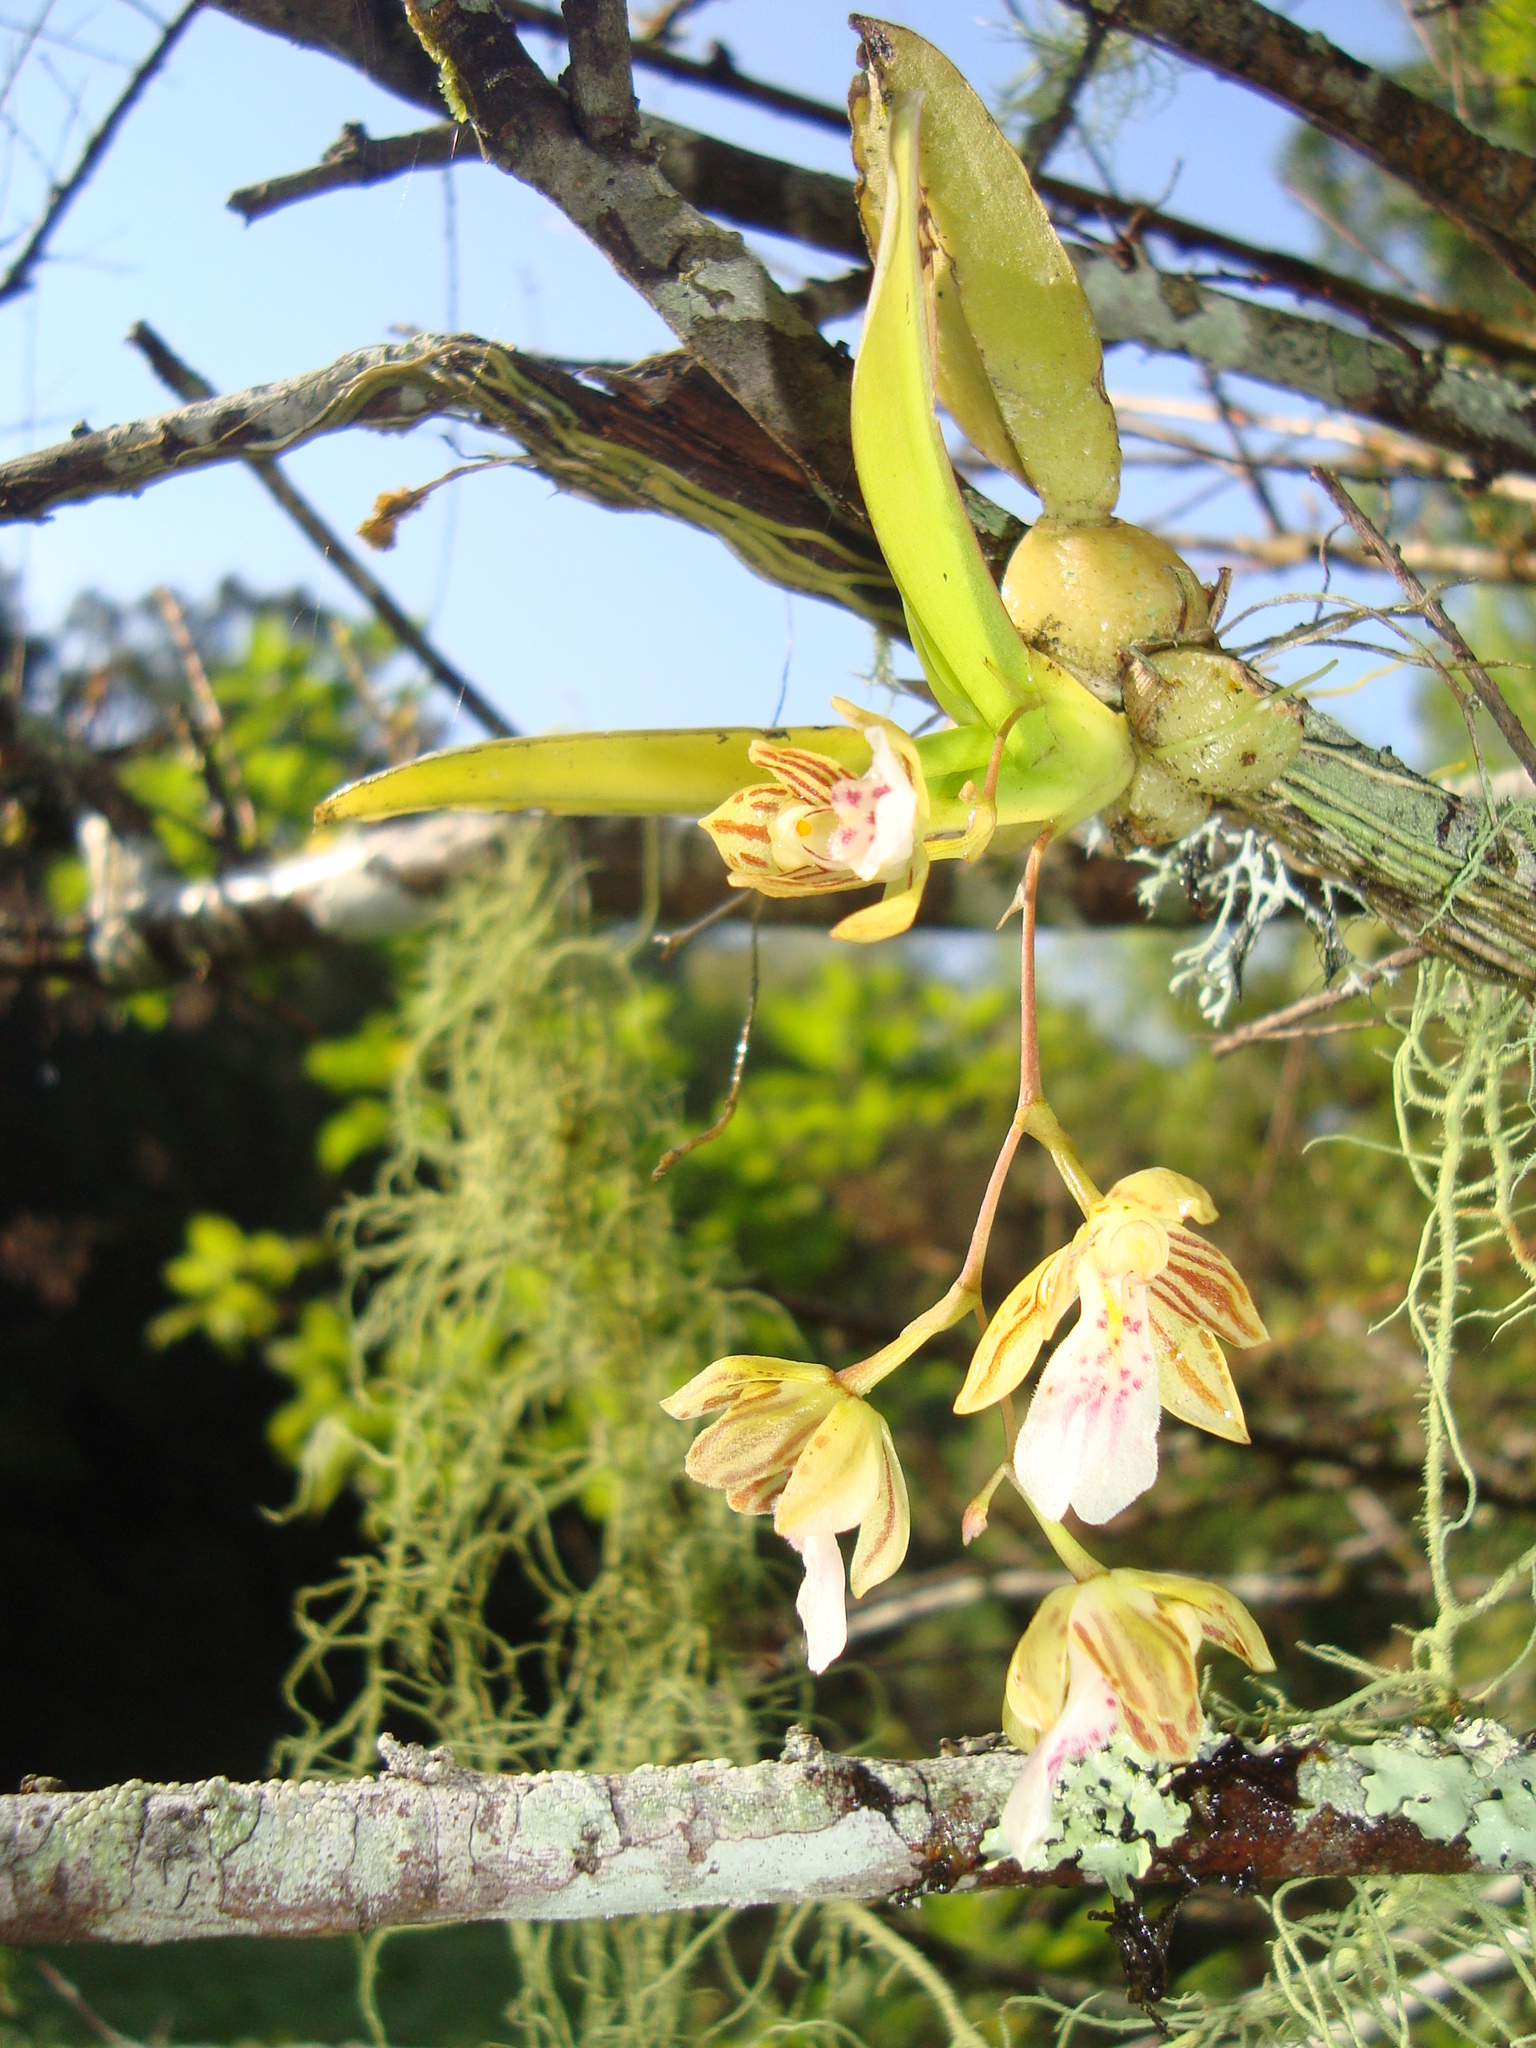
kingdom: Plantae
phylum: Tracheophyta
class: Liliopsida
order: Asparagales
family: Orchidaceae
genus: Leochilus
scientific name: Leochilus crocodiliceps
